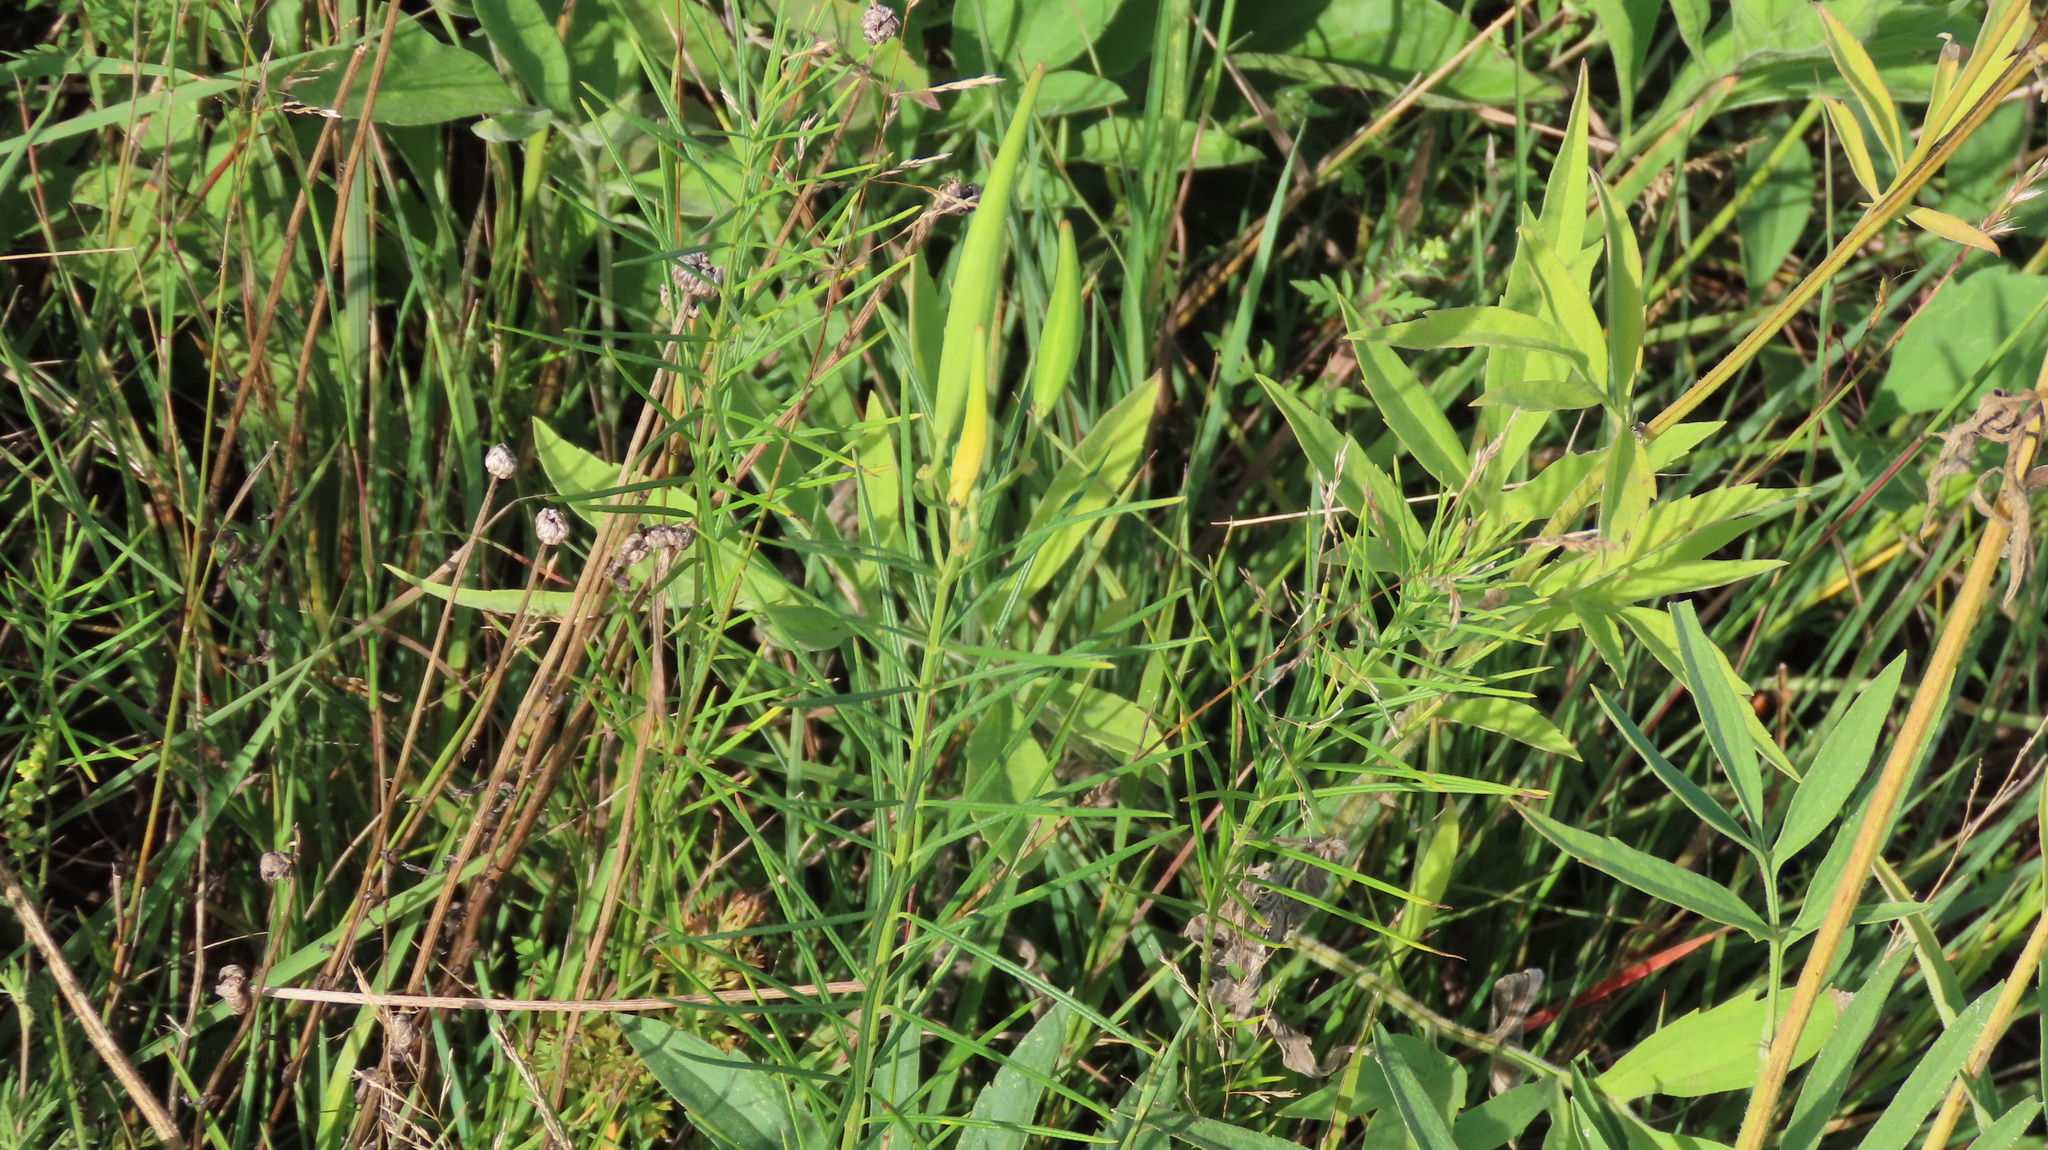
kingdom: Plantae
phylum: Tracheophyta
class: Magnoliopsida
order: Gentianales
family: Apocynaceae
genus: Asclepias
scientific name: Asclepias verticillata
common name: Eastern whorled milkweed
